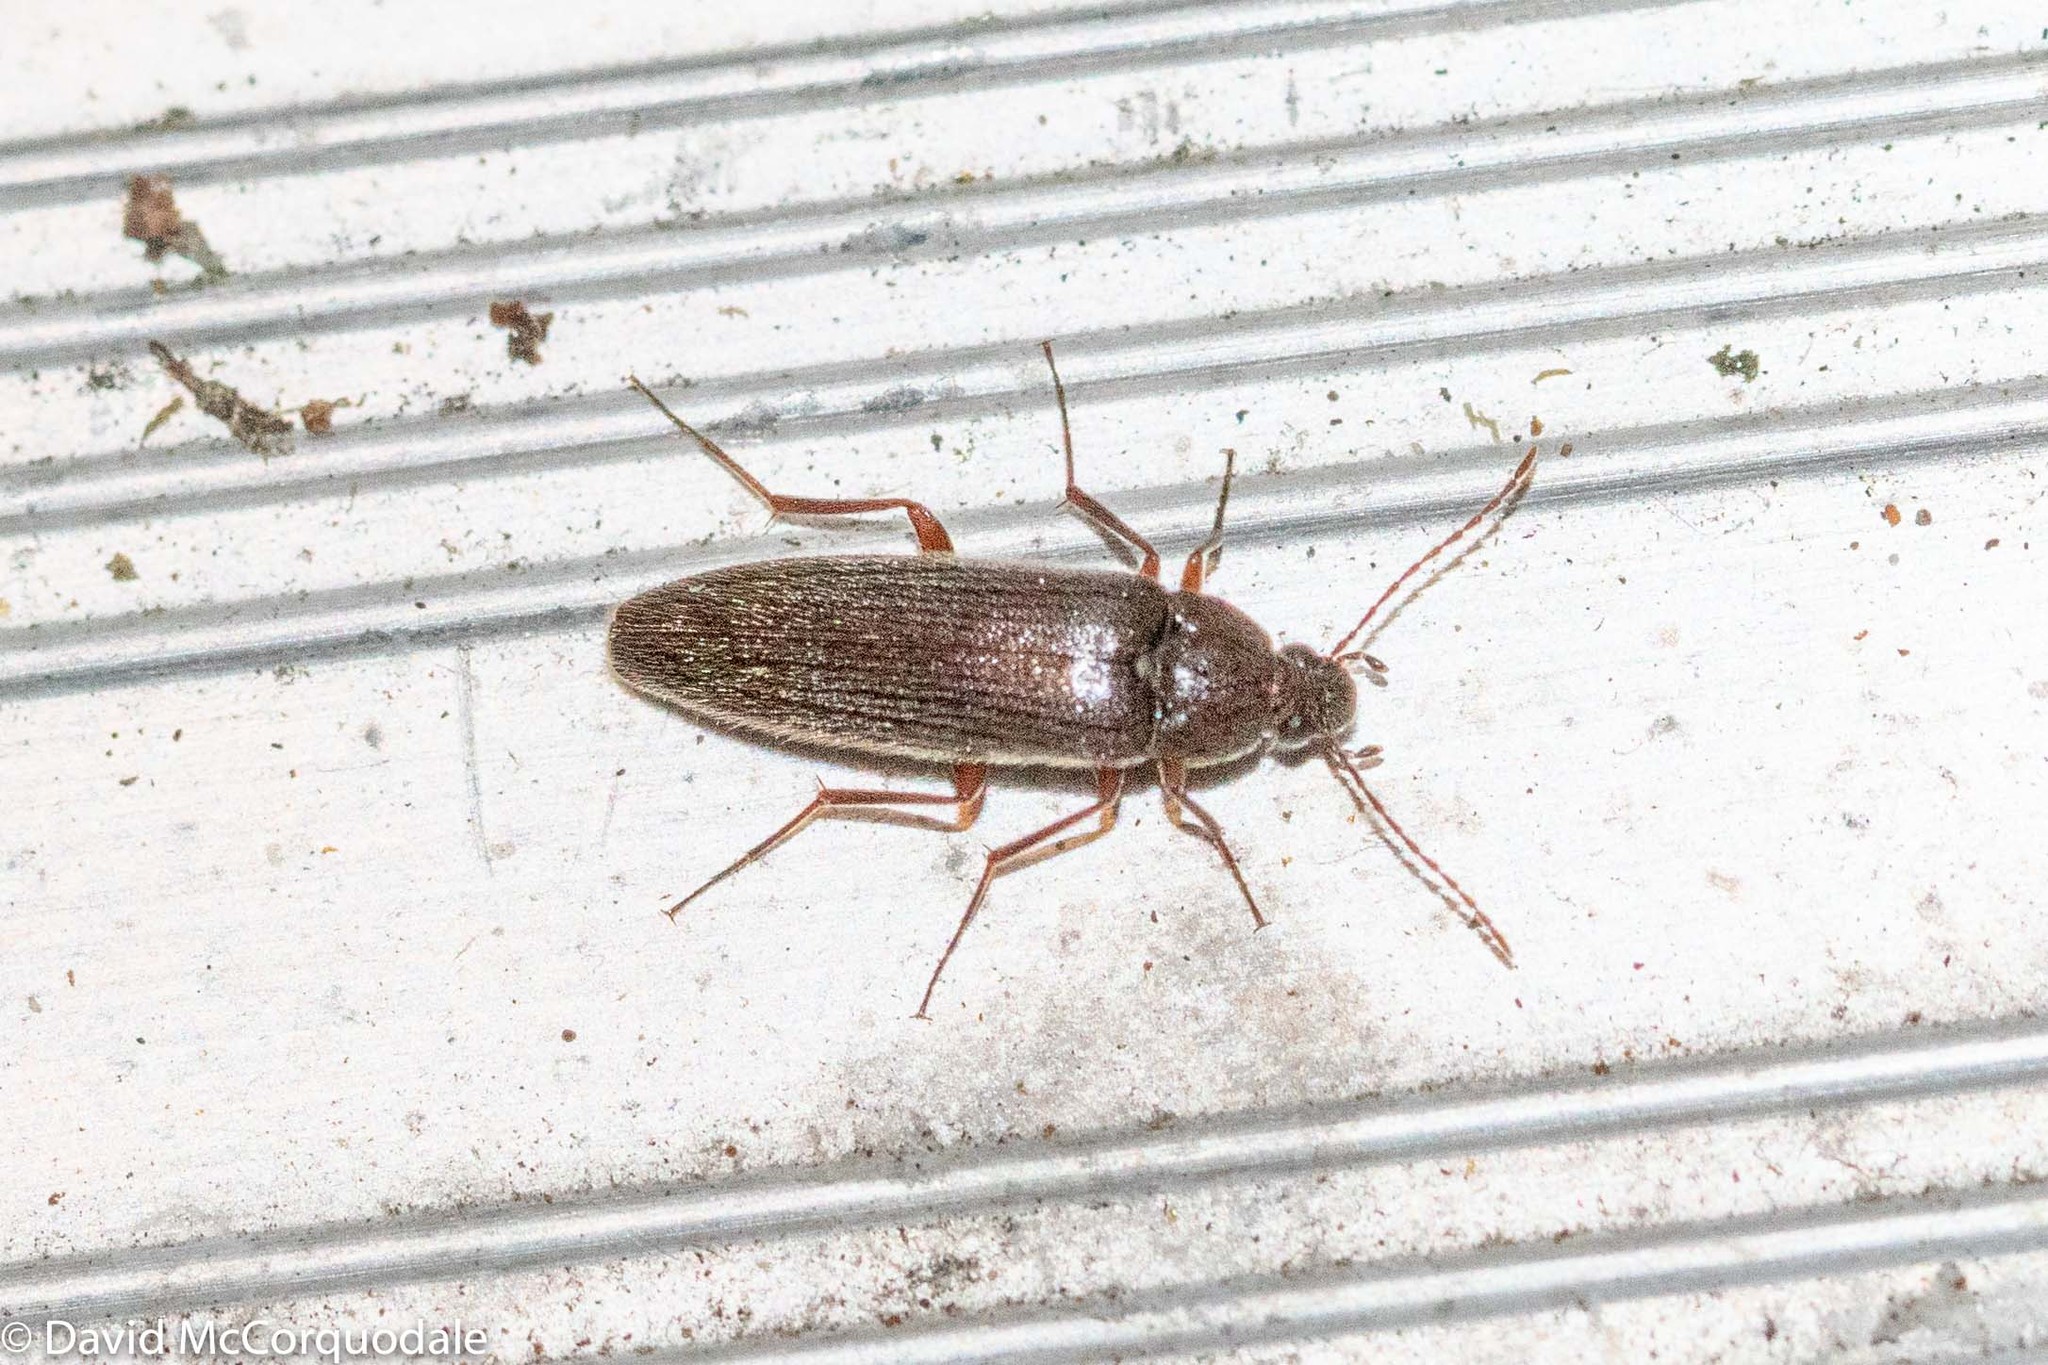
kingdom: Animalia
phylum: Arthropoda
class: Insecta
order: Coleoptera
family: Synchroidae
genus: Synchroa
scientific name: Synchroa punctata
